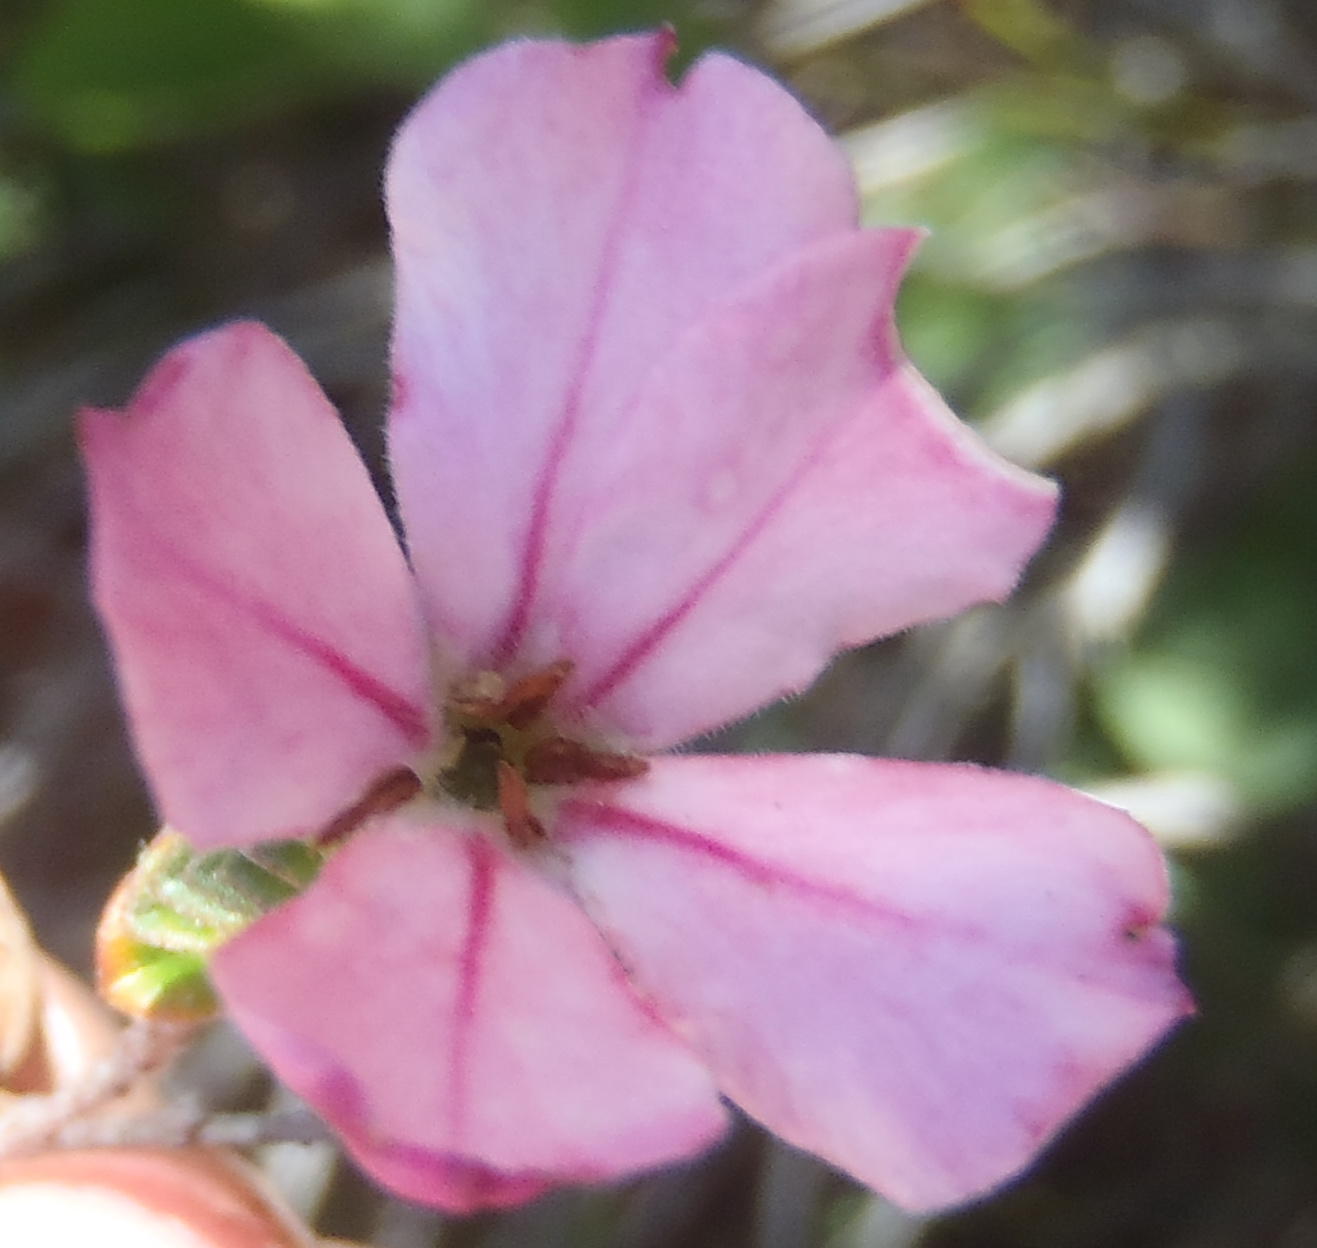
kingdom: Plantae
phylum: Tracheophyta
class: Magnoliopsida
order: Sapindales
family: Rutaceae
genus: Acmadenia
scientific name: Acmadenia tetragona
